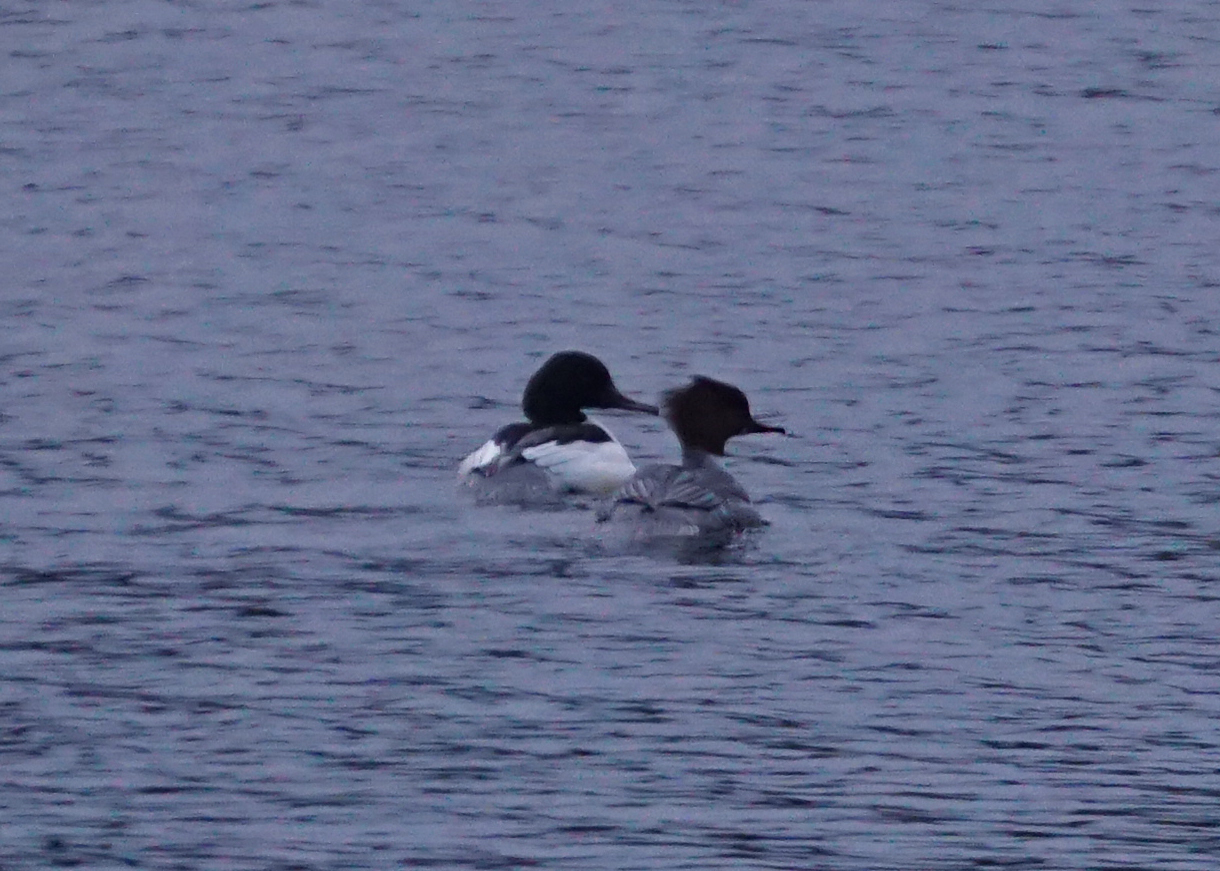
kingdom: Animalia
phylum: Chordata
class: Aves
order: Anseriformes
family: Anatidae
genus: Mergus
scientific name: Mergus merganser
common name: Common merganser
